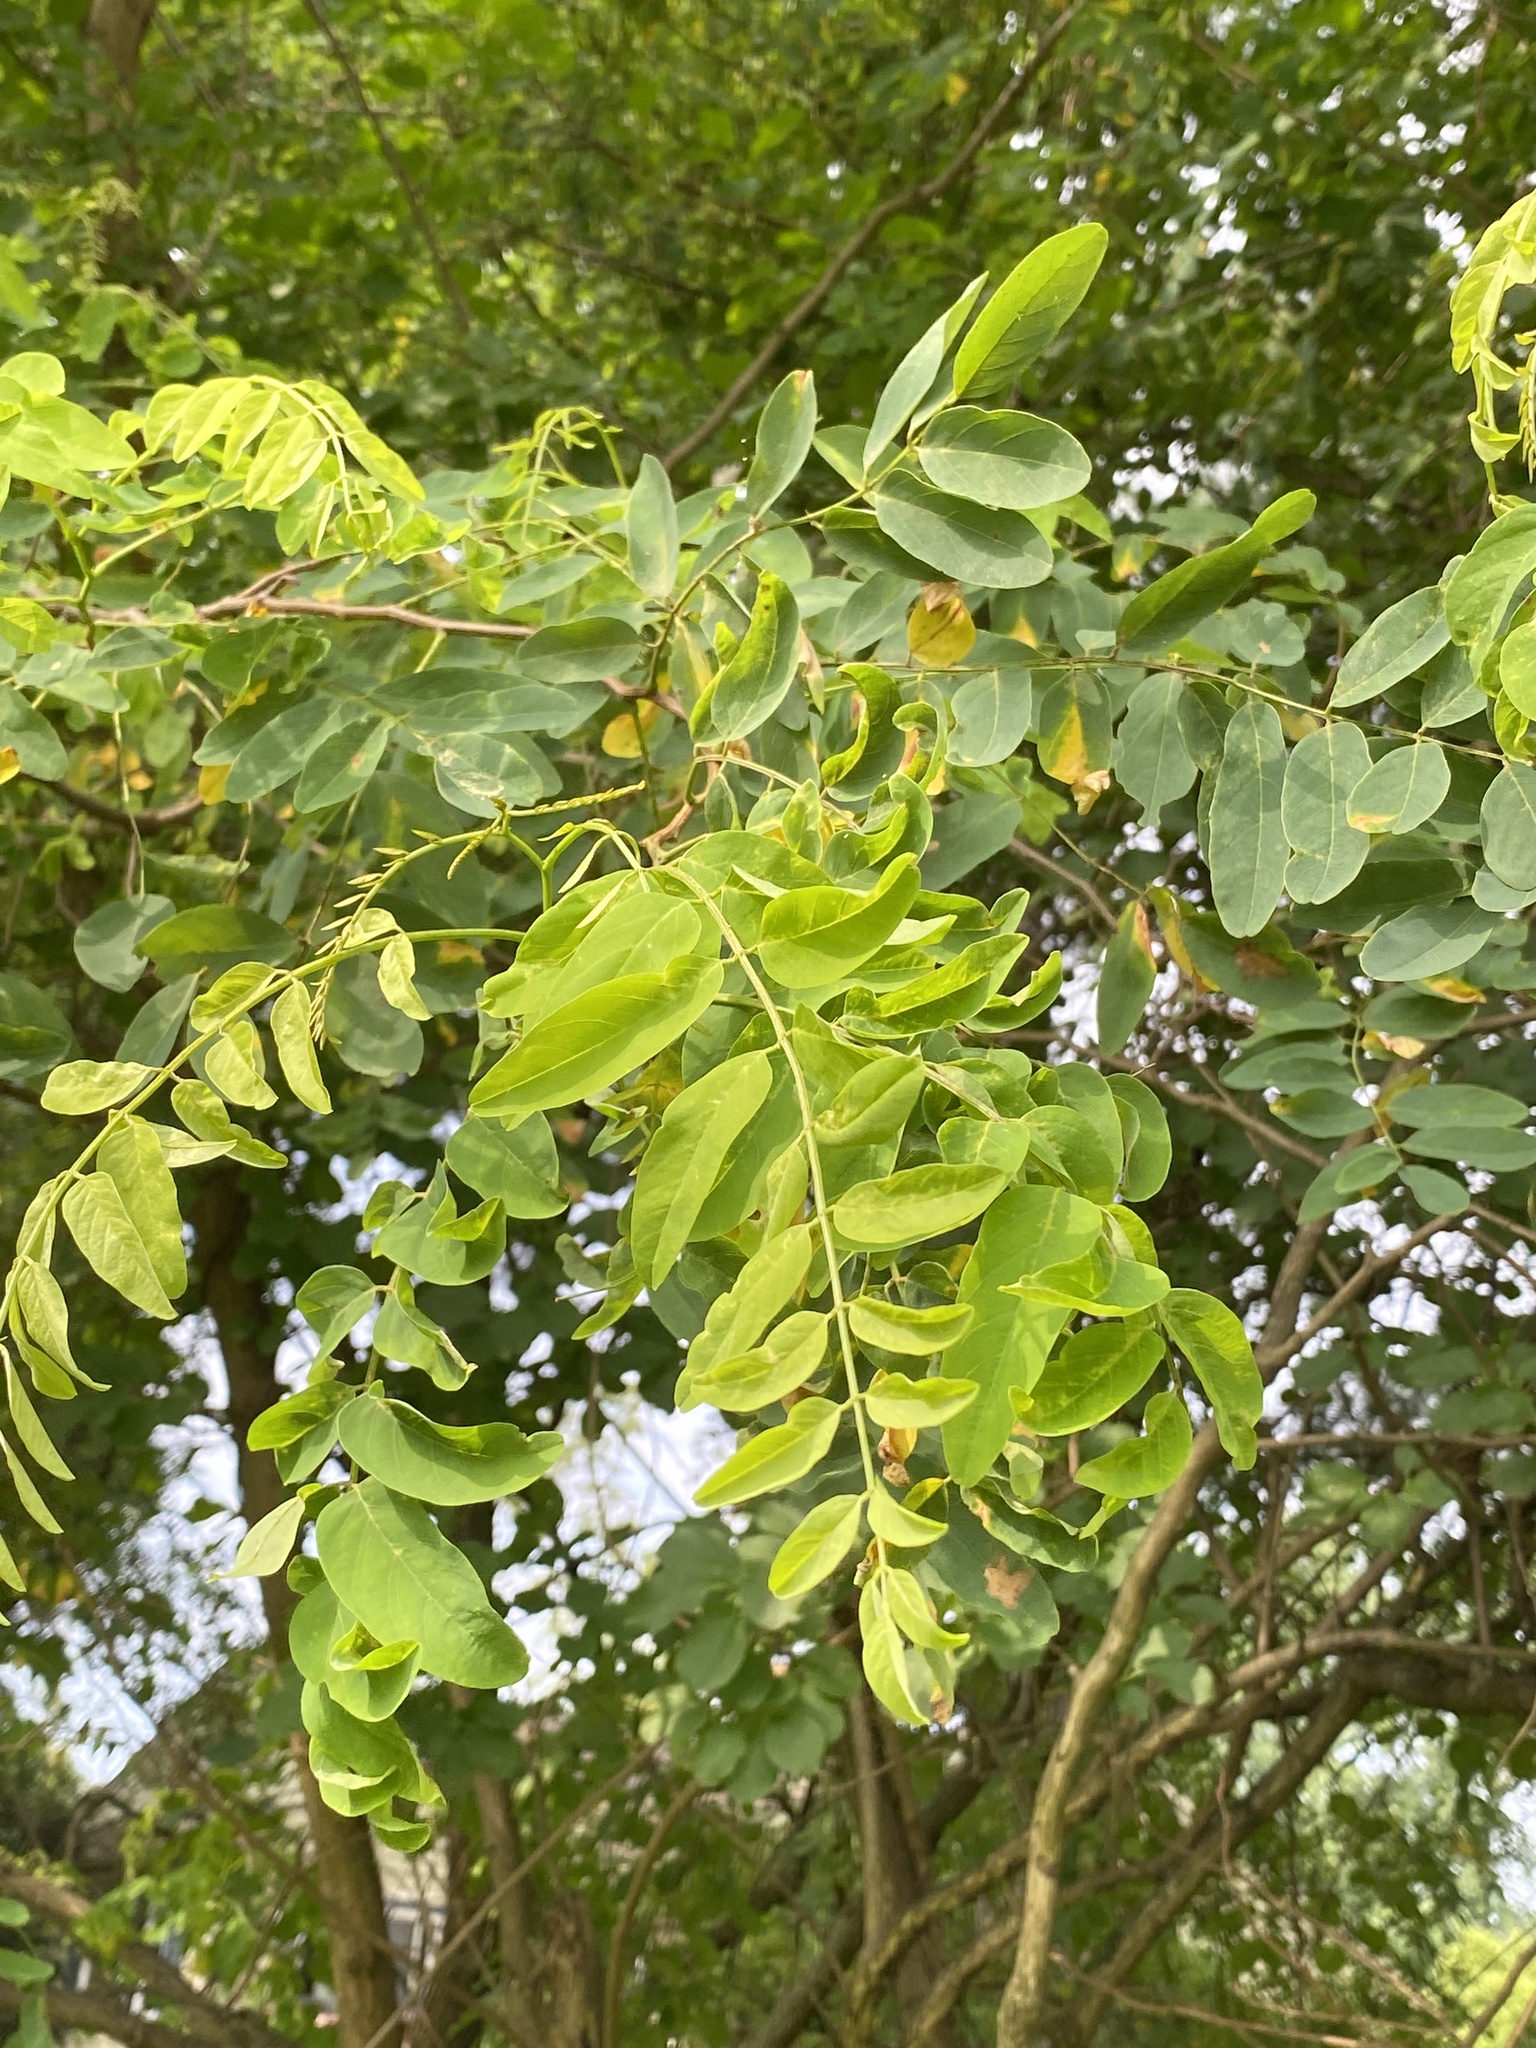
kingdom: Plantae
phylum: Tracheophyta
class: Magnoliopsida
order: Fabales
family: Fabaceae
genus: Robinia
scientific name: Robinia pseudoacacia
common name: Black locust
